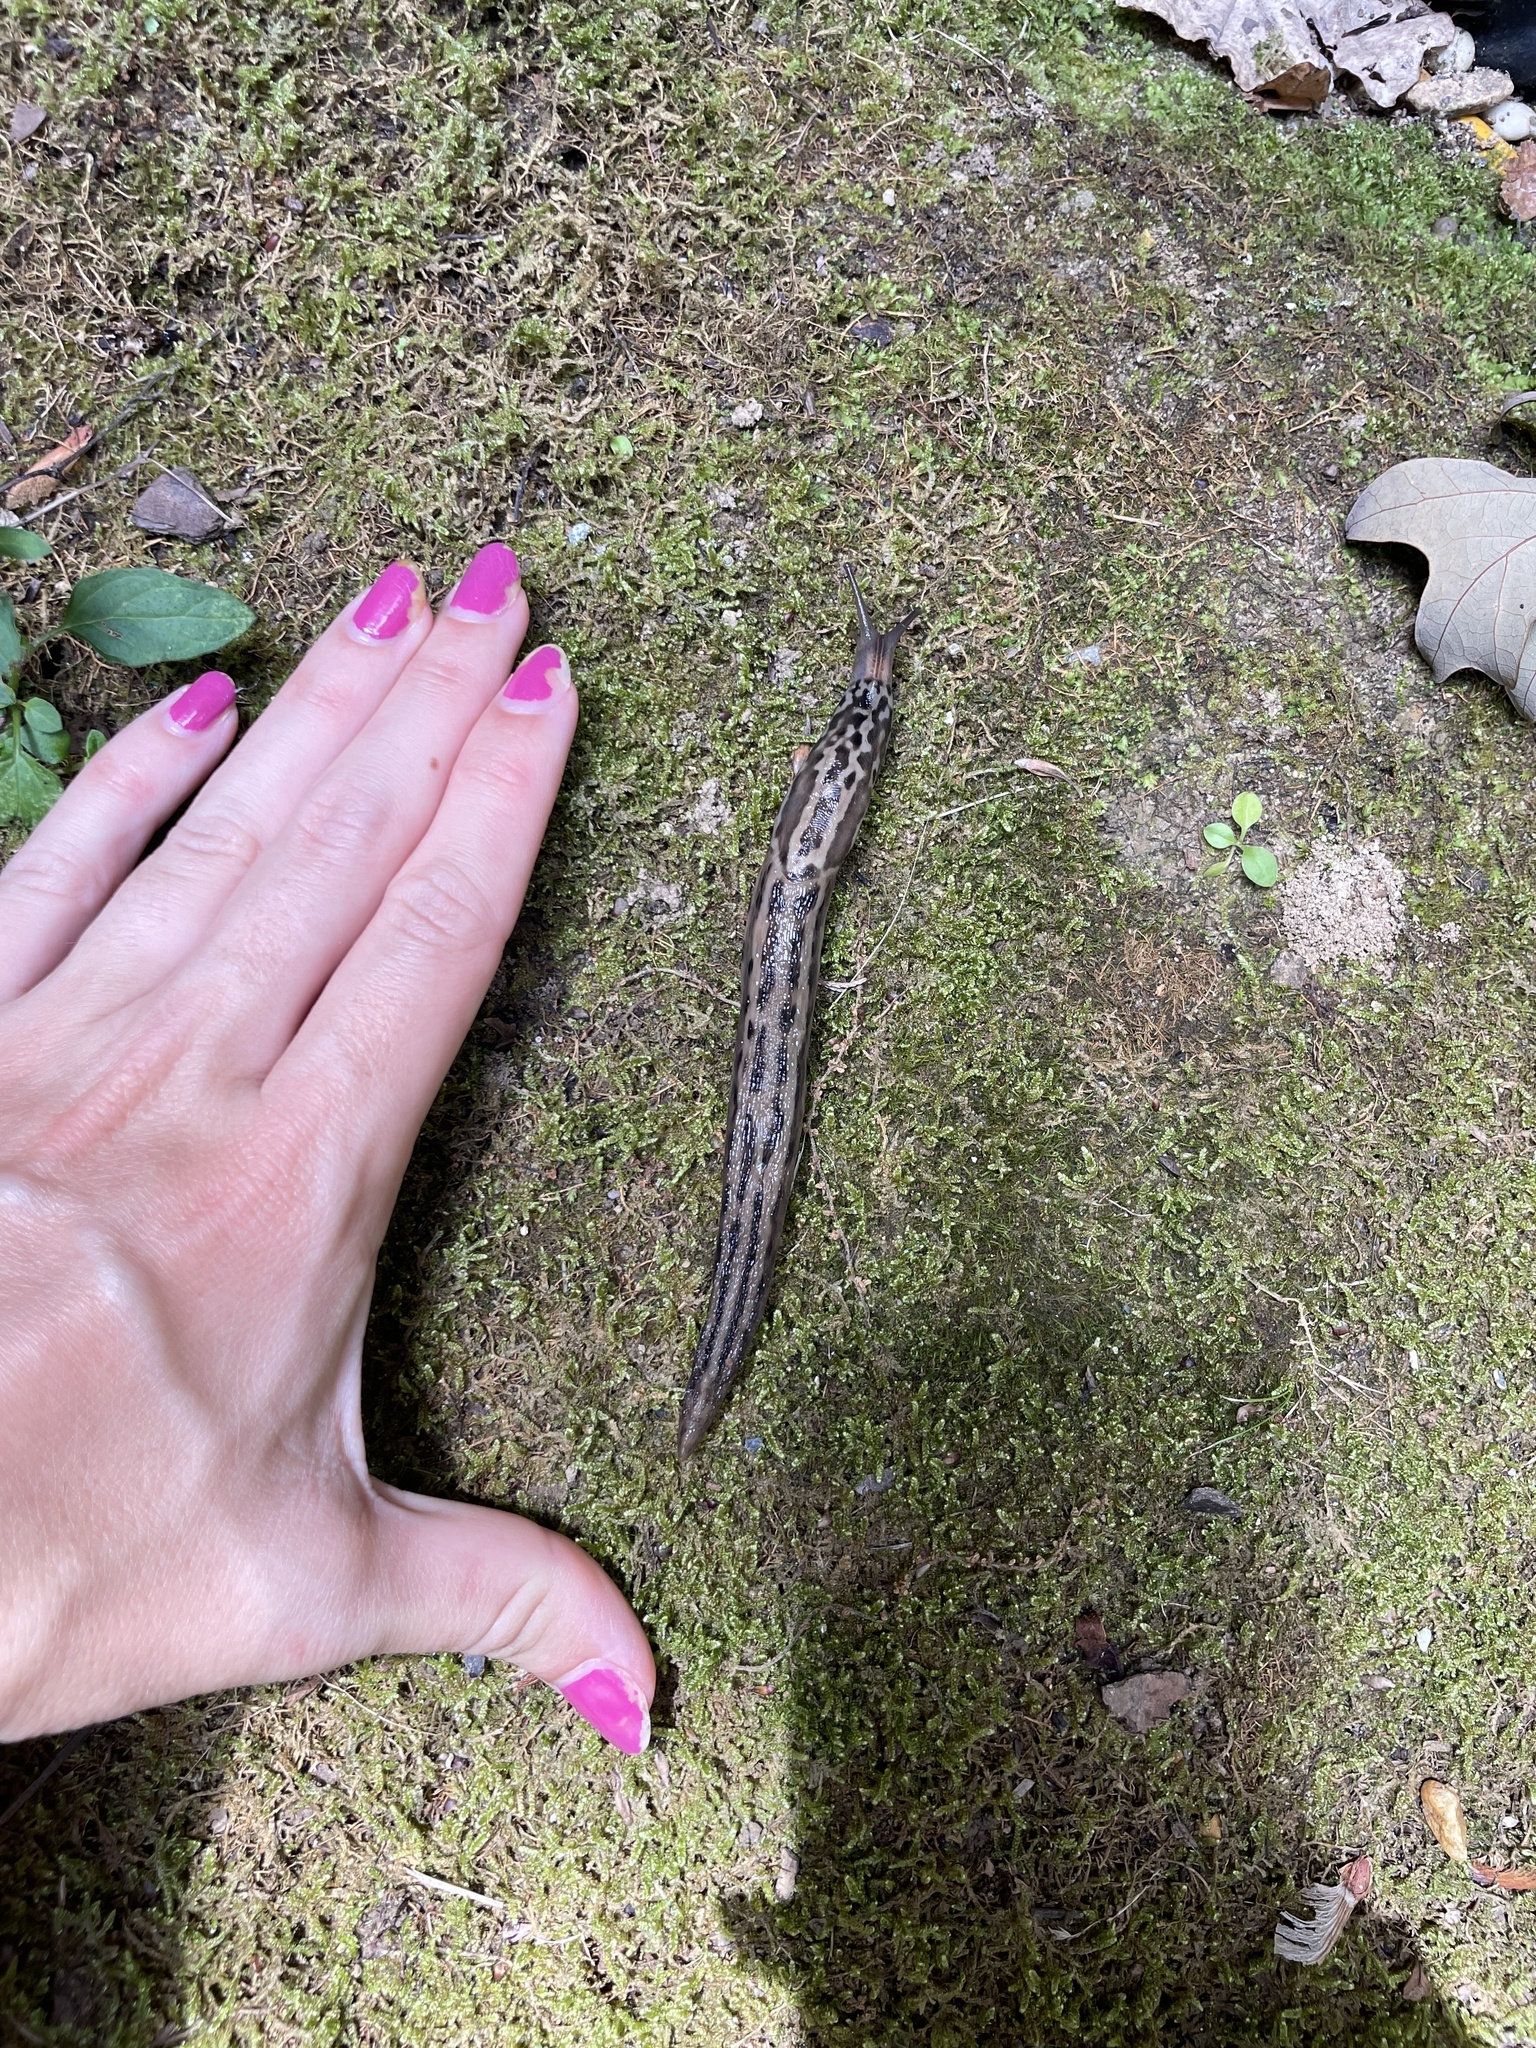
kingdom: Animalia
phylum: Mollusca
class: Gastropoda
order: Stylommatophora
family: Limacidae
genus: Limax
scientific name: Limax maximus
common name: Great grey slug
